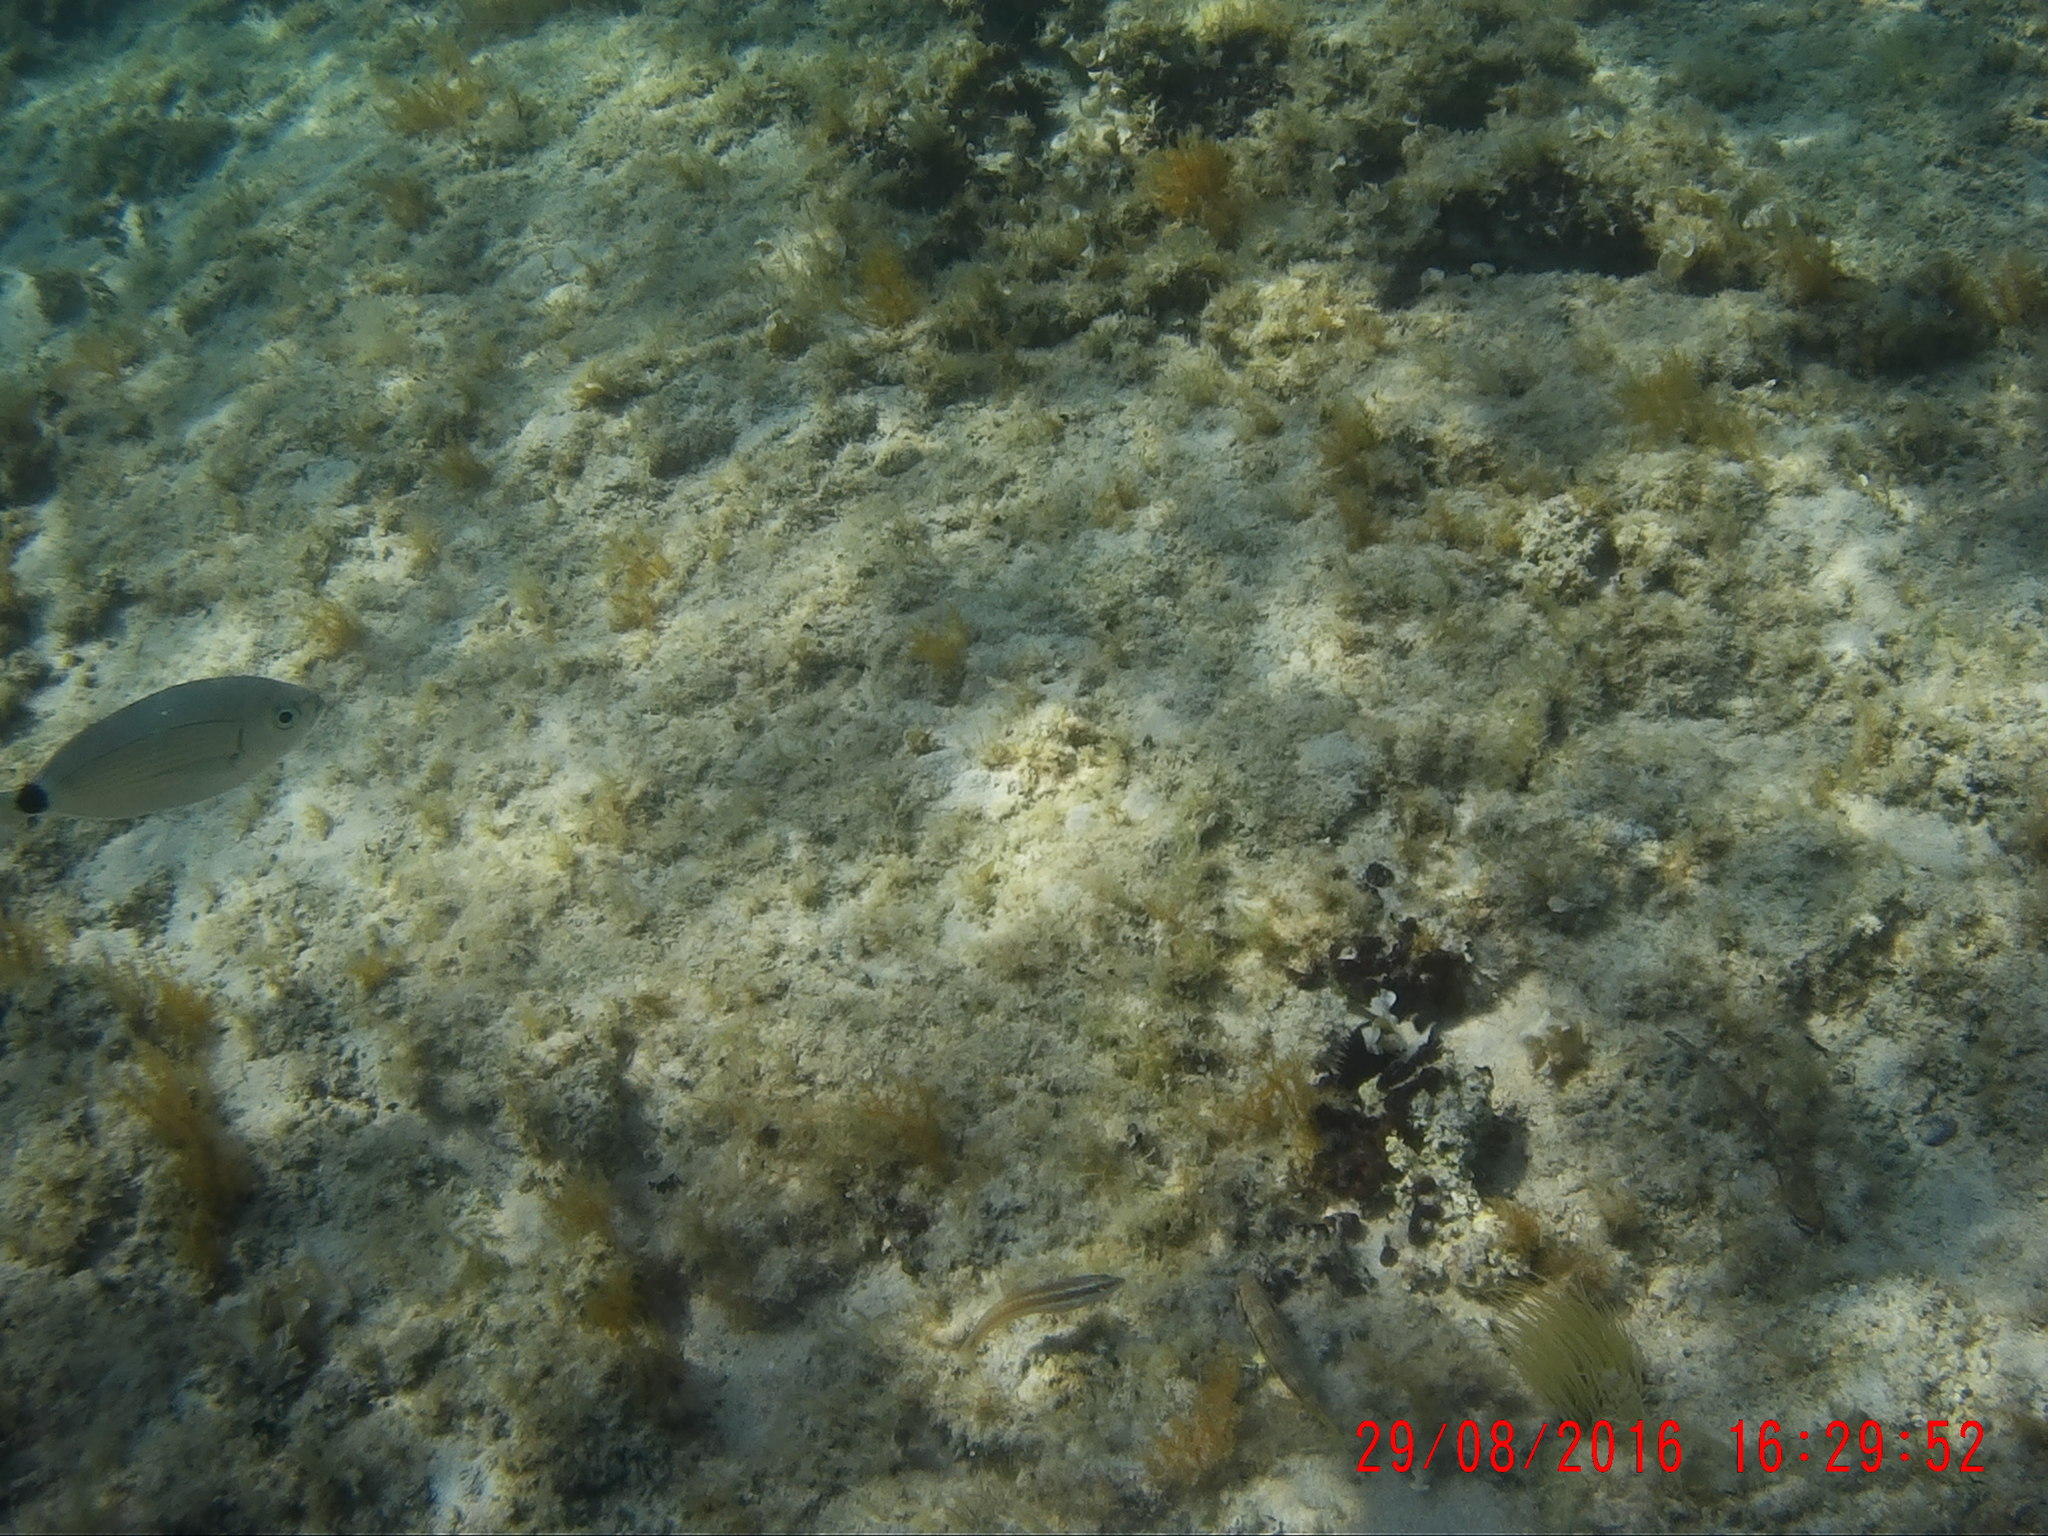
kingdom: Animalia
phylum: Chordata
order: Perciformes
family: Sparidae
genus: Oblada
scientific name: Oblada melanura
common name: Saddled seabream
